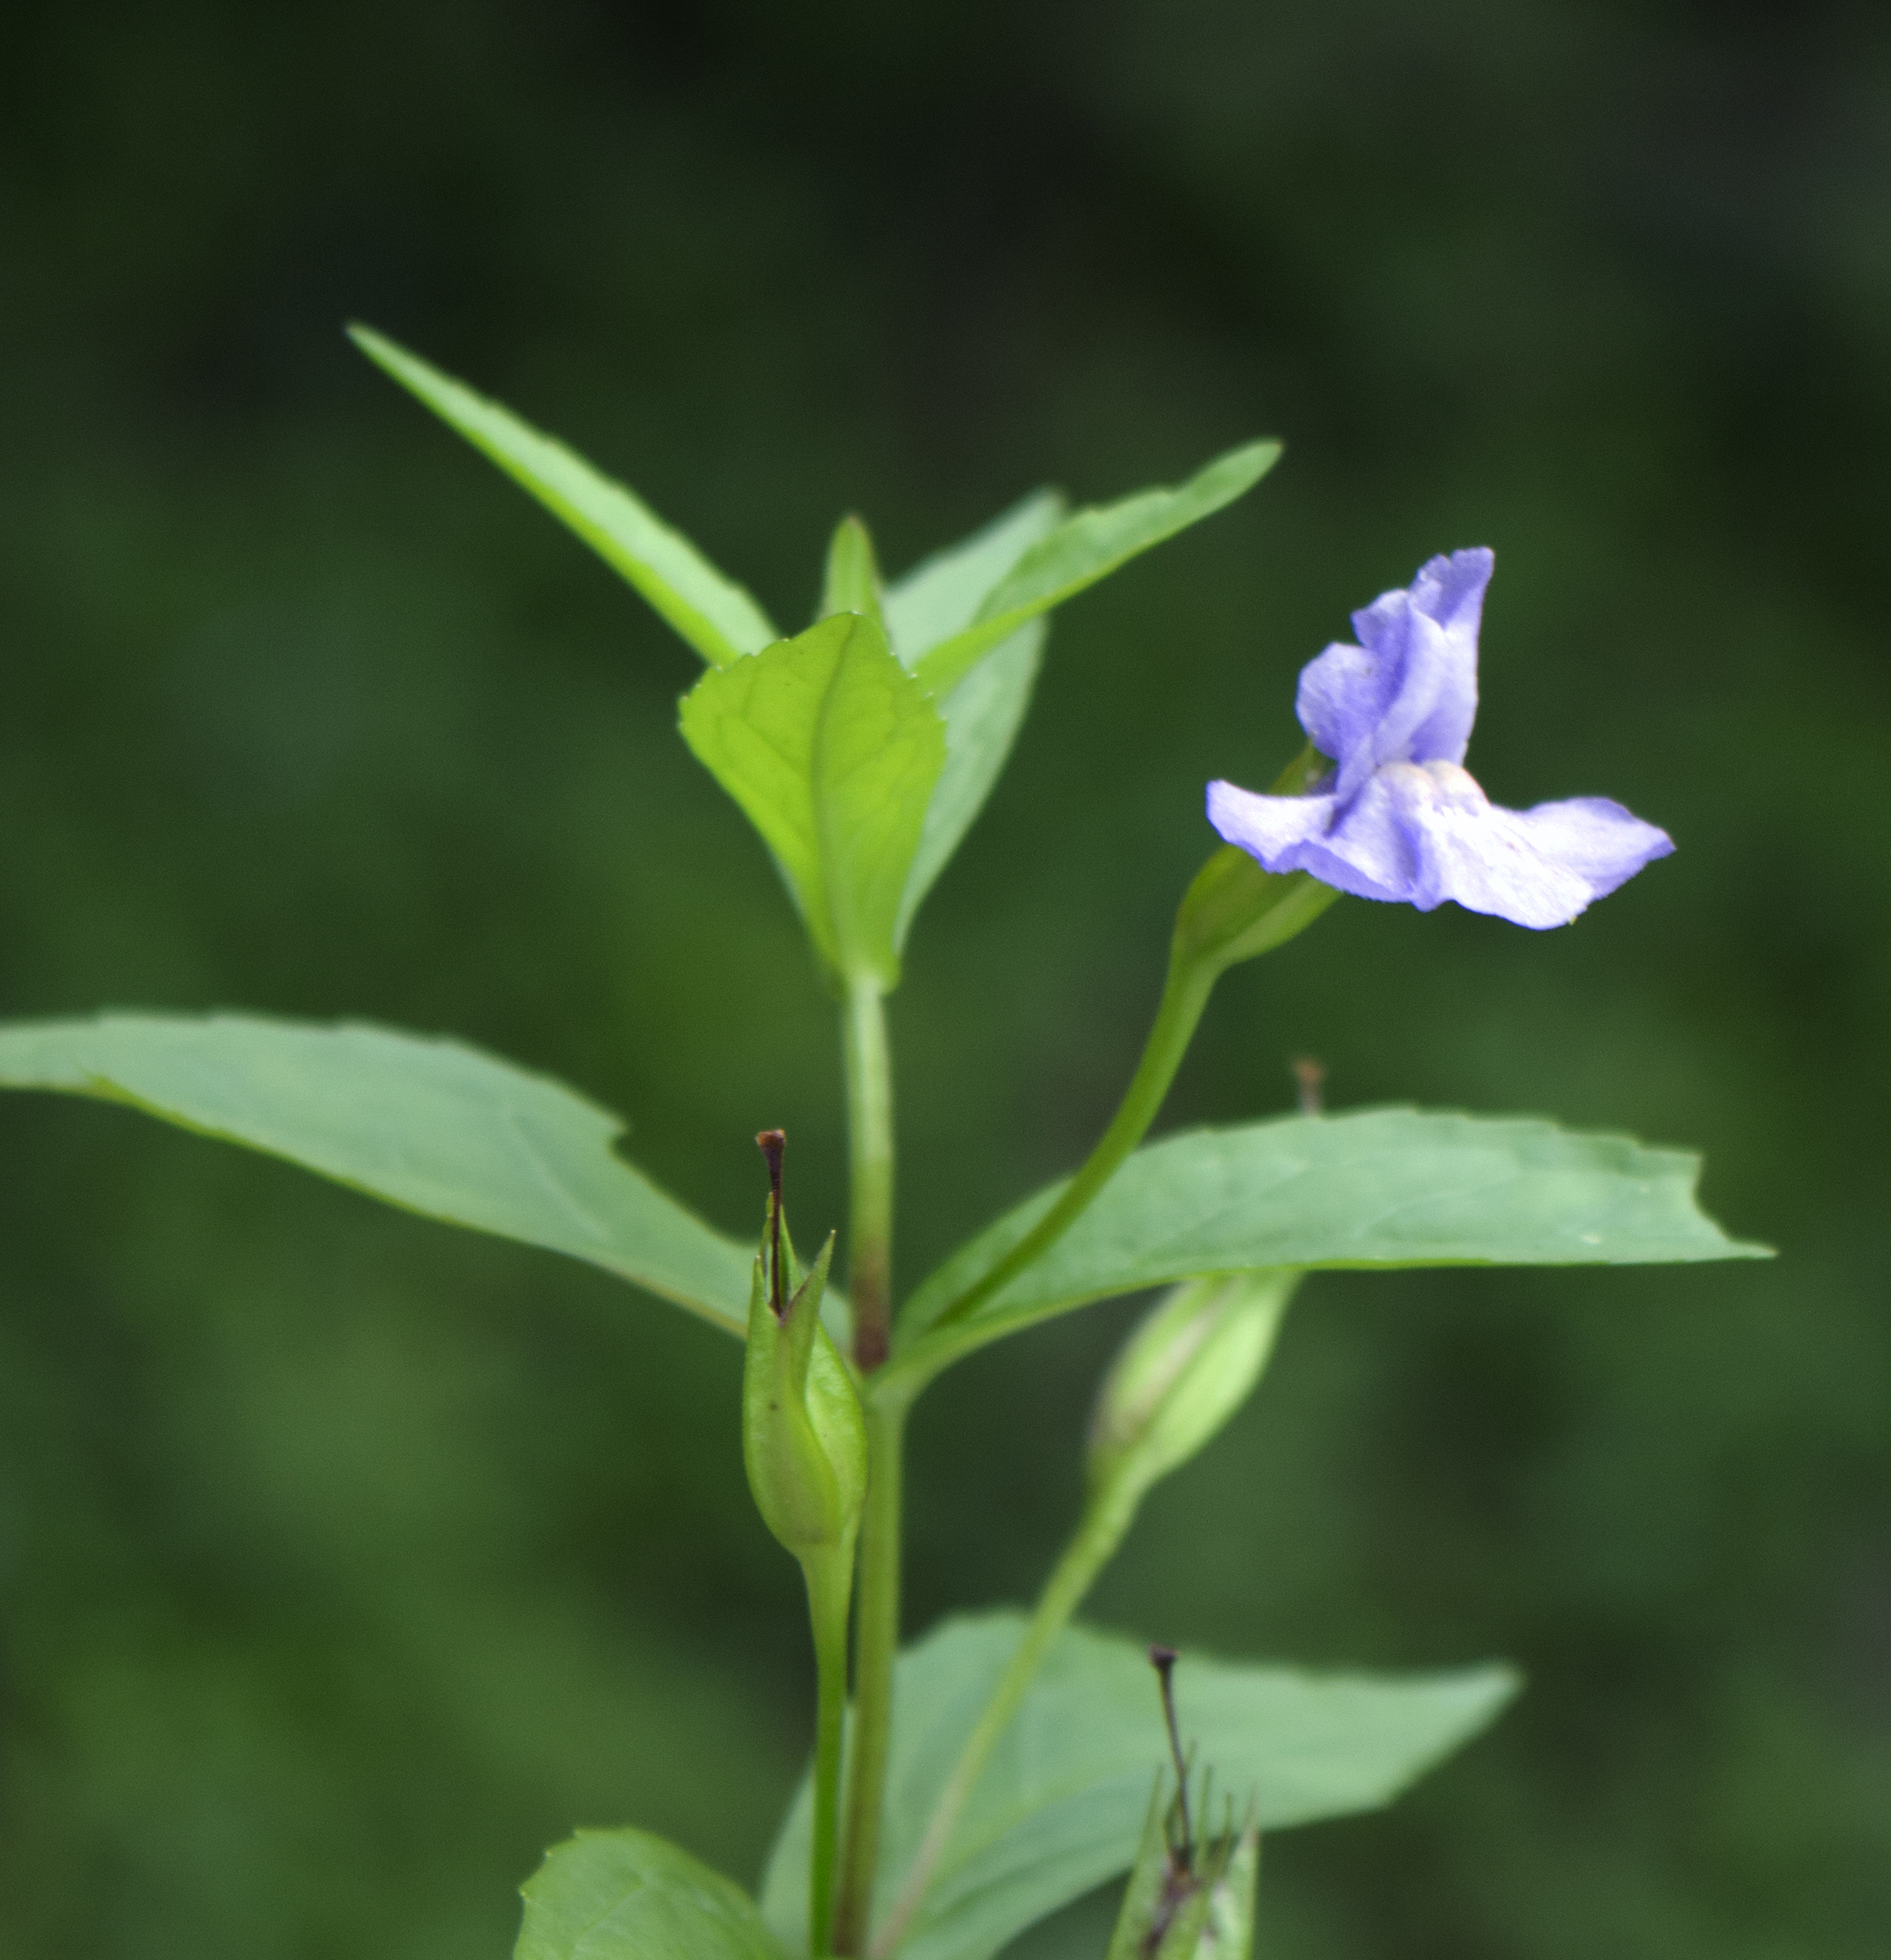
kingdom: Plantae
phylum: Tracheophyta
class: Magnoliopsida
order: Lamiales
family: Phrymaceae
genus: Mimulus
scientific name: Mimulus ringens
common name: Allegheny monkeyflower
